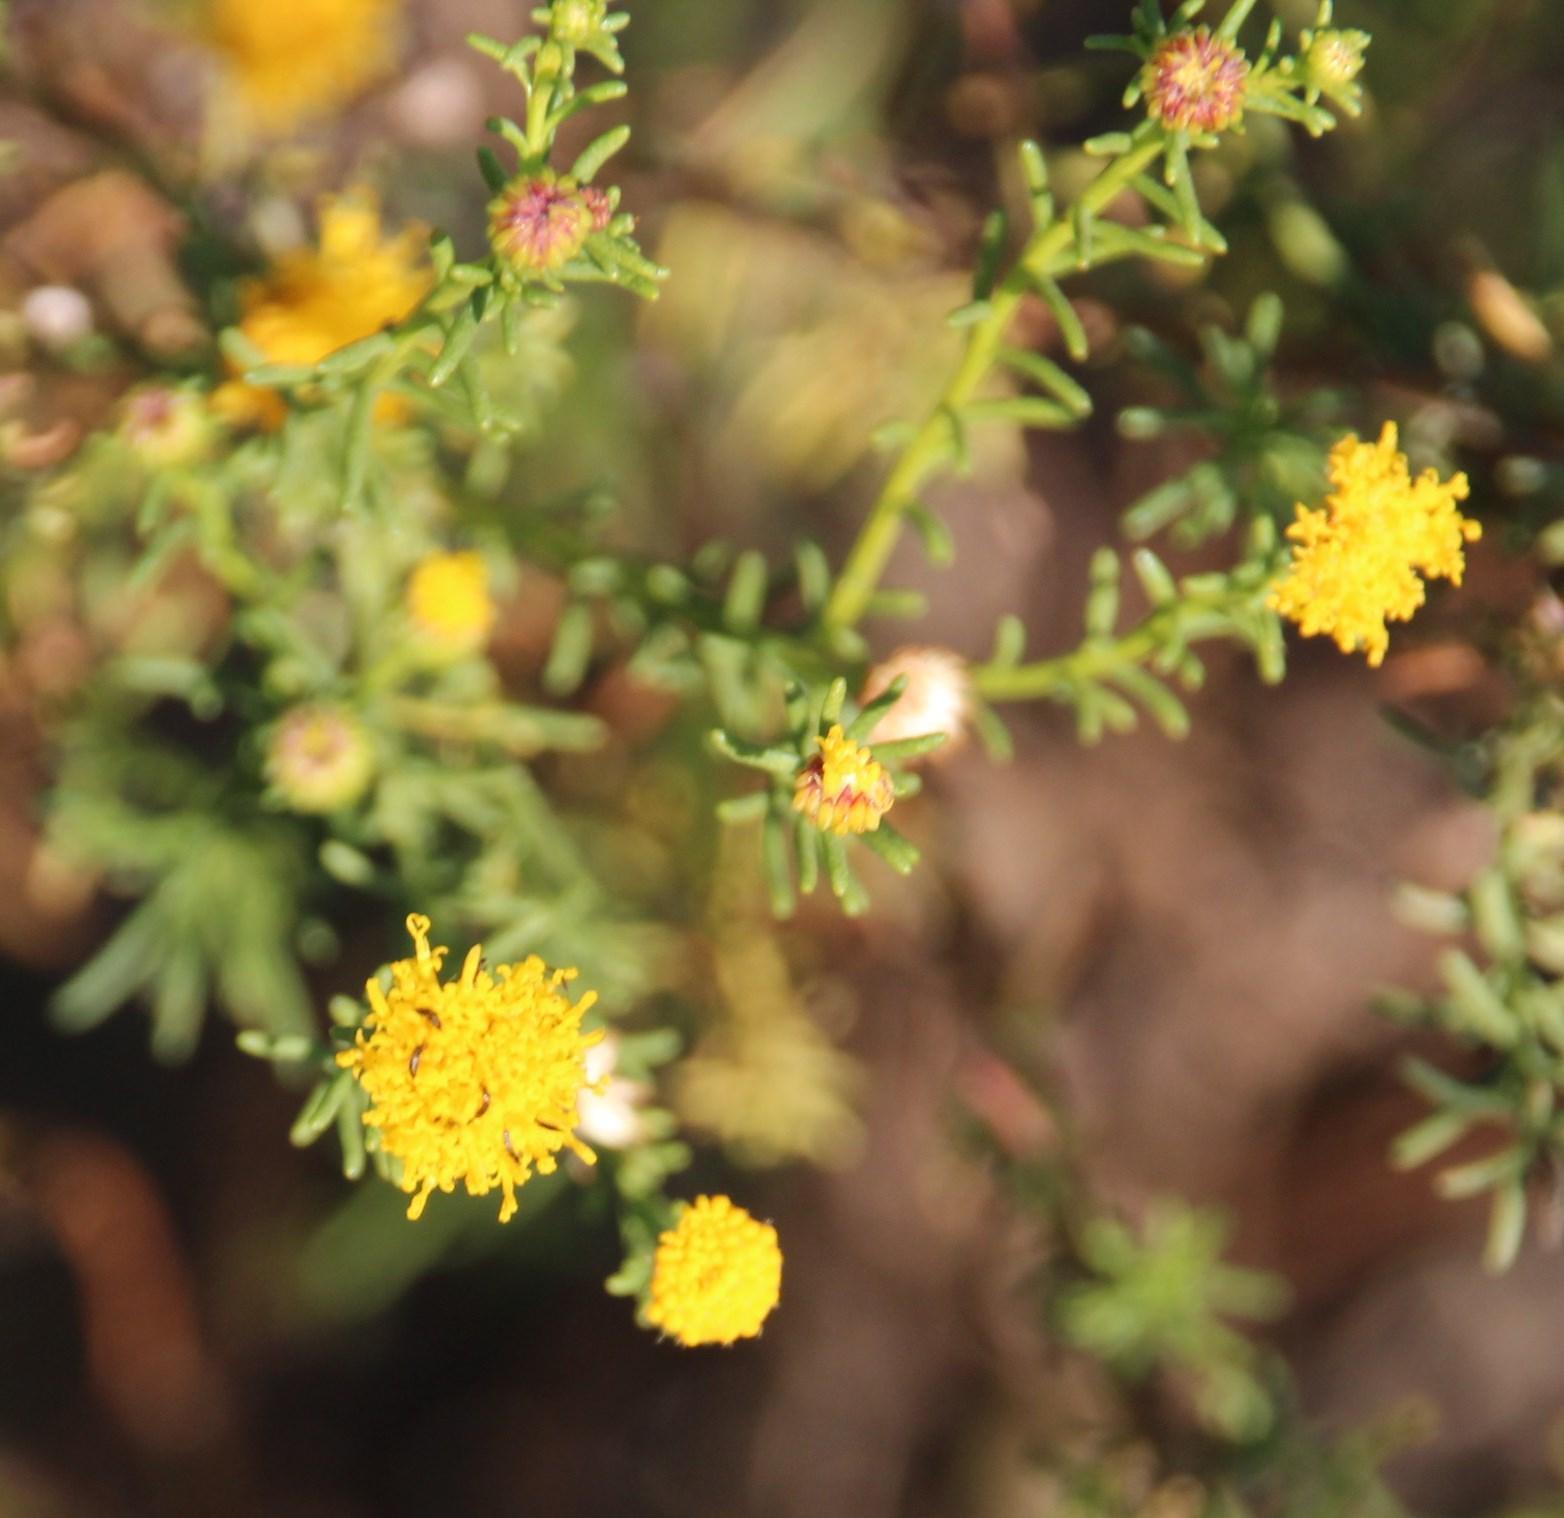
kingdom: Plantae
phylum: Tracheophyta
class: Magnoliopsida
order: Asterales
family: Asteraceae
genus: Chrysocoma
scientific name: Chrysocoma ciliata
